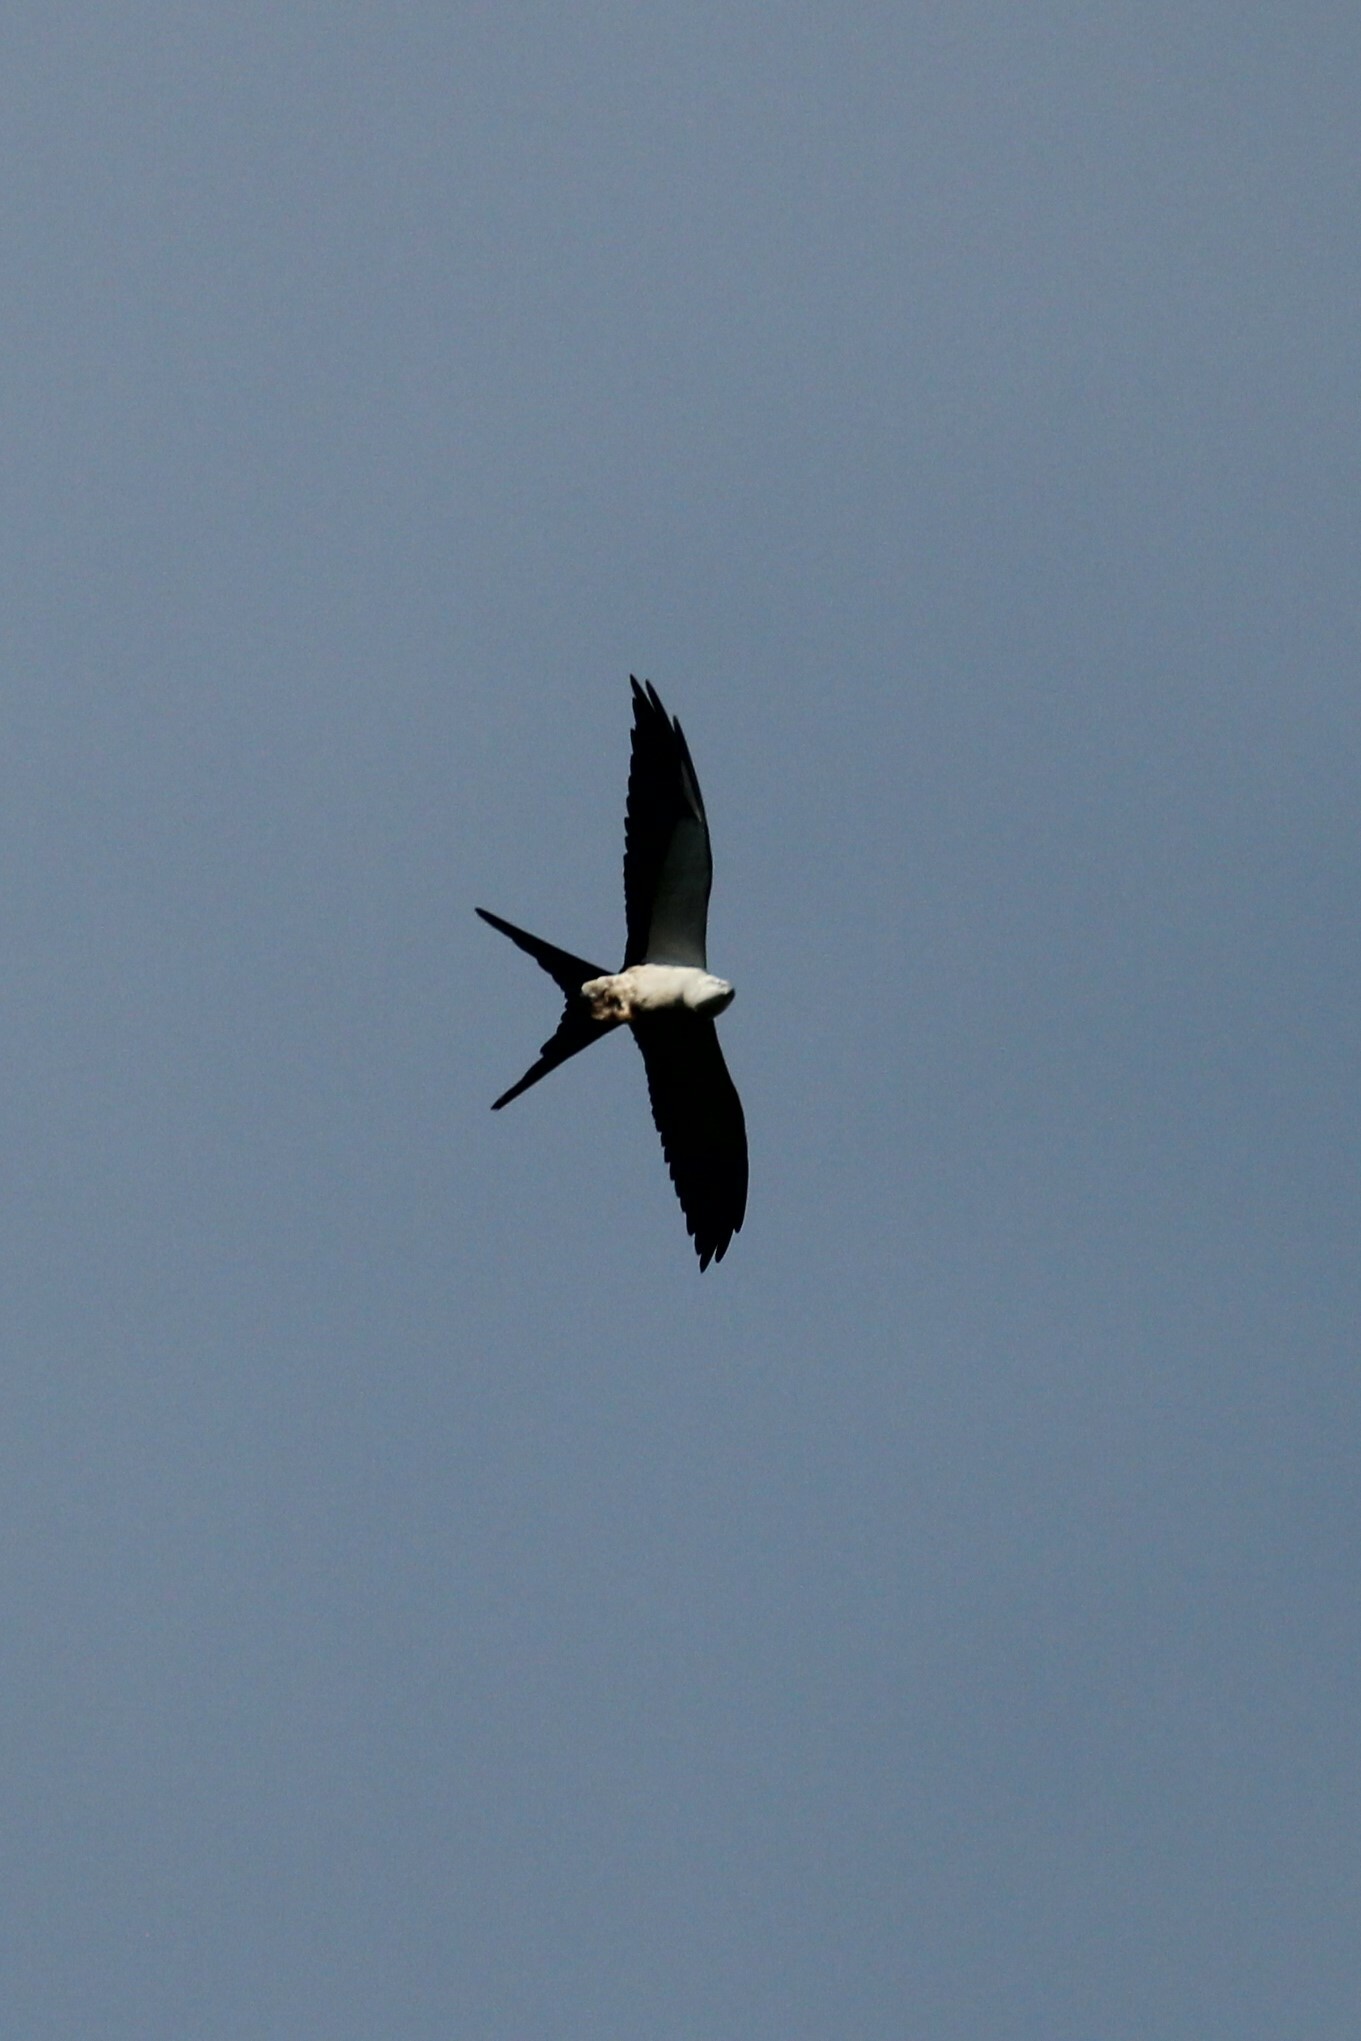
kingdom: Animalia
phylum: Chordata
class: Aves
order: Accipitriformes
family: Accipitridae
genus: Elanoides
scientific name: Elanoides forficatus
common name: Swallow-tailed kite
